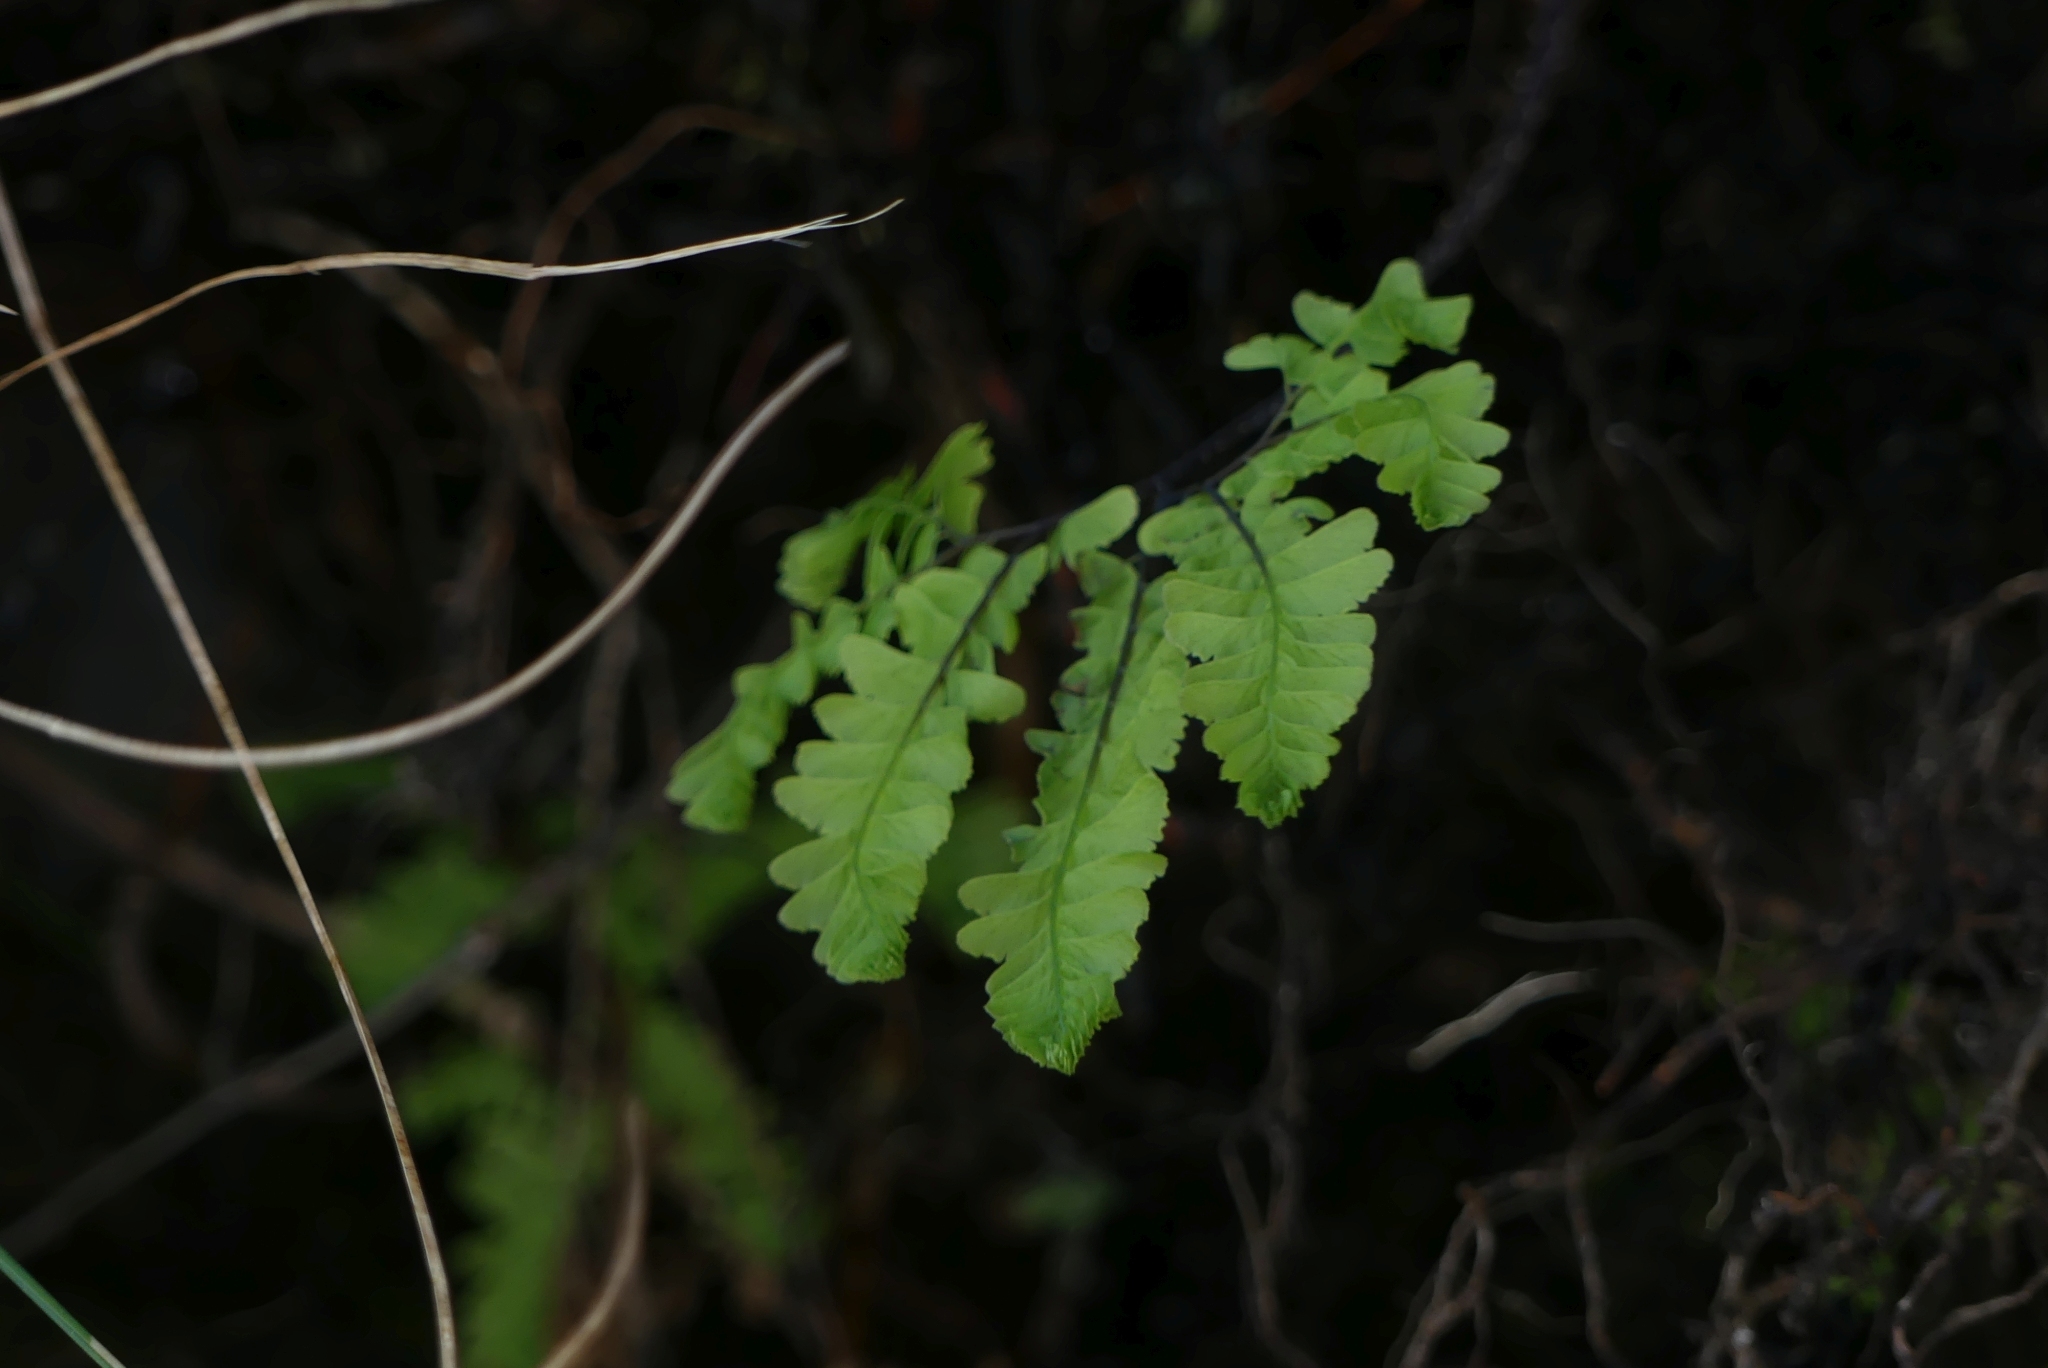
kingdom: Plantae
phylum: Tracheophyta
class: Polypodiopsida
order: Polypodiales
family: Pteridaceae
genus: Adiantum
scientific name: Adiantum aleuticum
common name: Aleutian maidenhair fern
